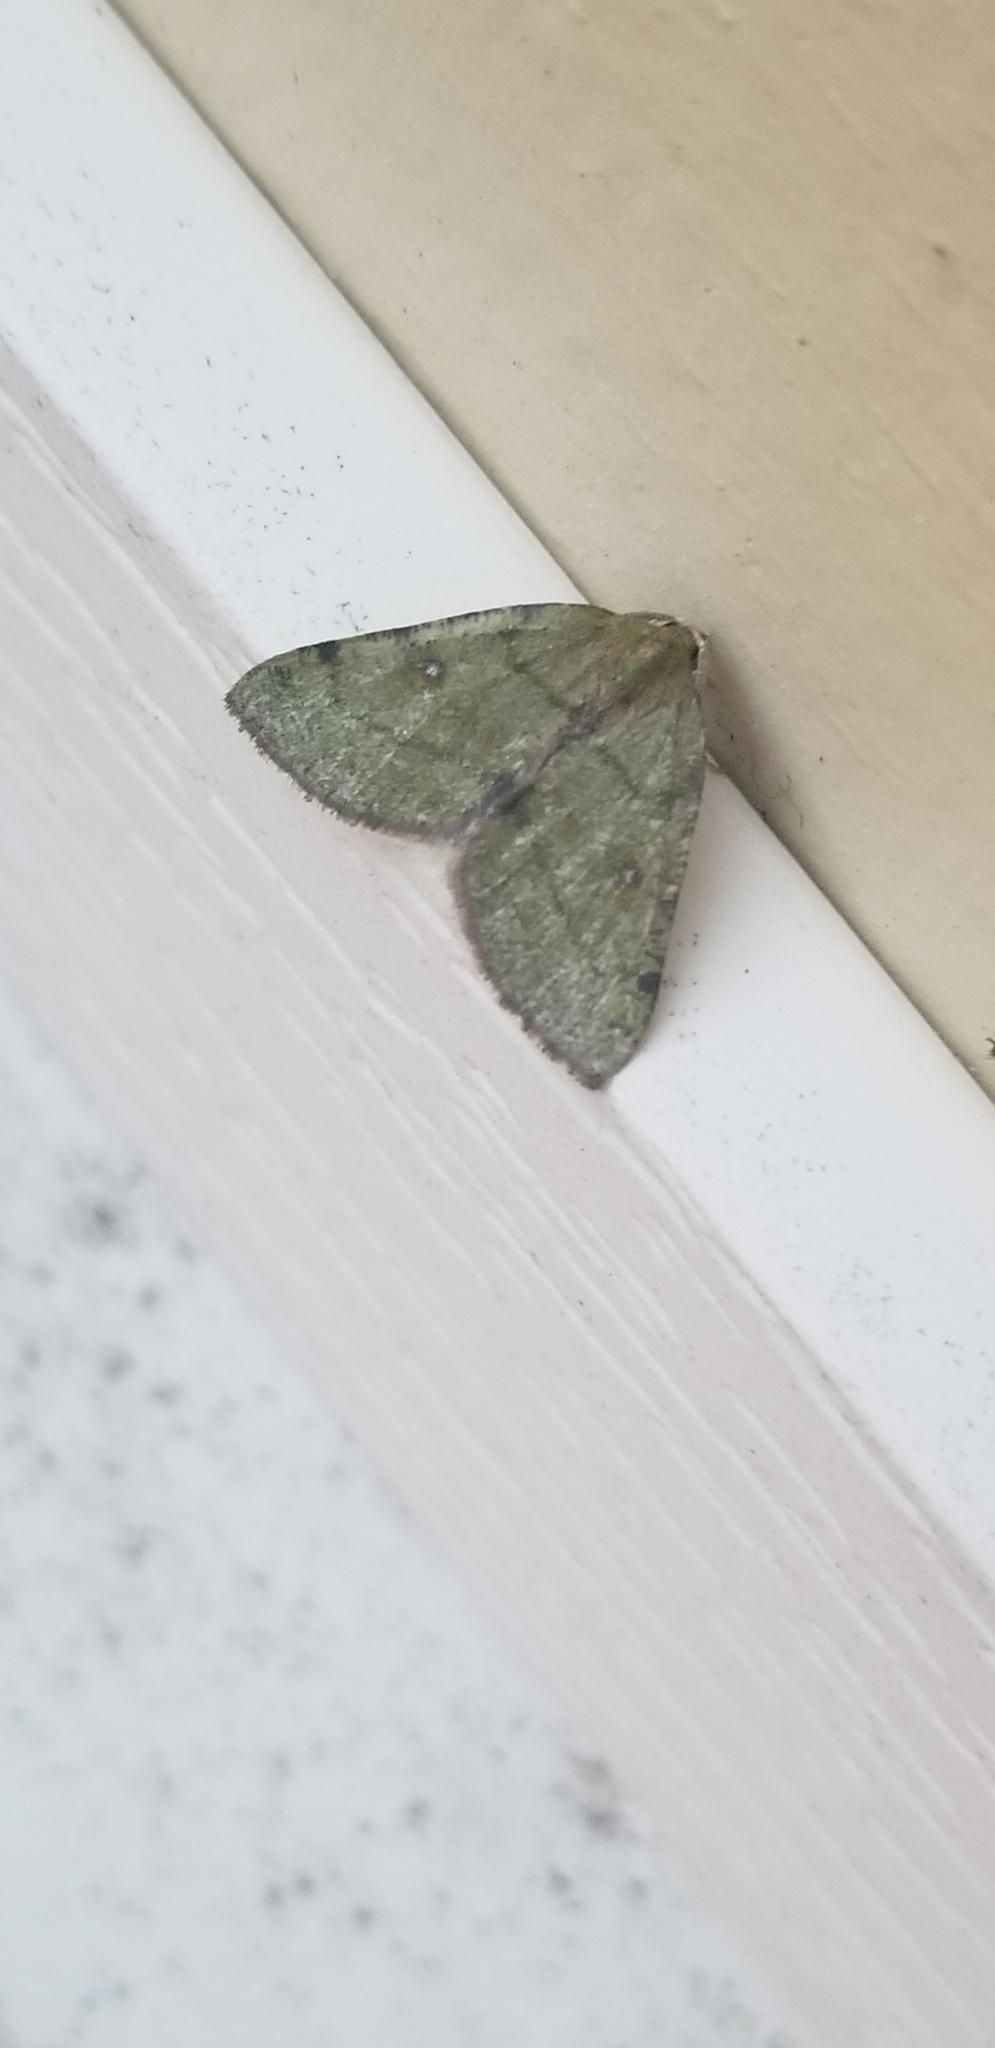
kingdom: Animalia
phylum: Arthropoda
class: Insecta
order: Lepidoptera
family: Geometridae
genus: Chloraspilates
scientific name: Chloraspilates bicoloraria
